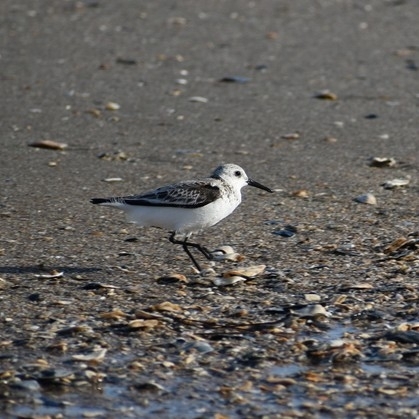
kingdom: Animalia
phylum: Chordata
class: Aves
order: Charadriiformes
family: Scolopacidae
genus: Calidris
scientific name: Calidris alba
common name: Sanderling
